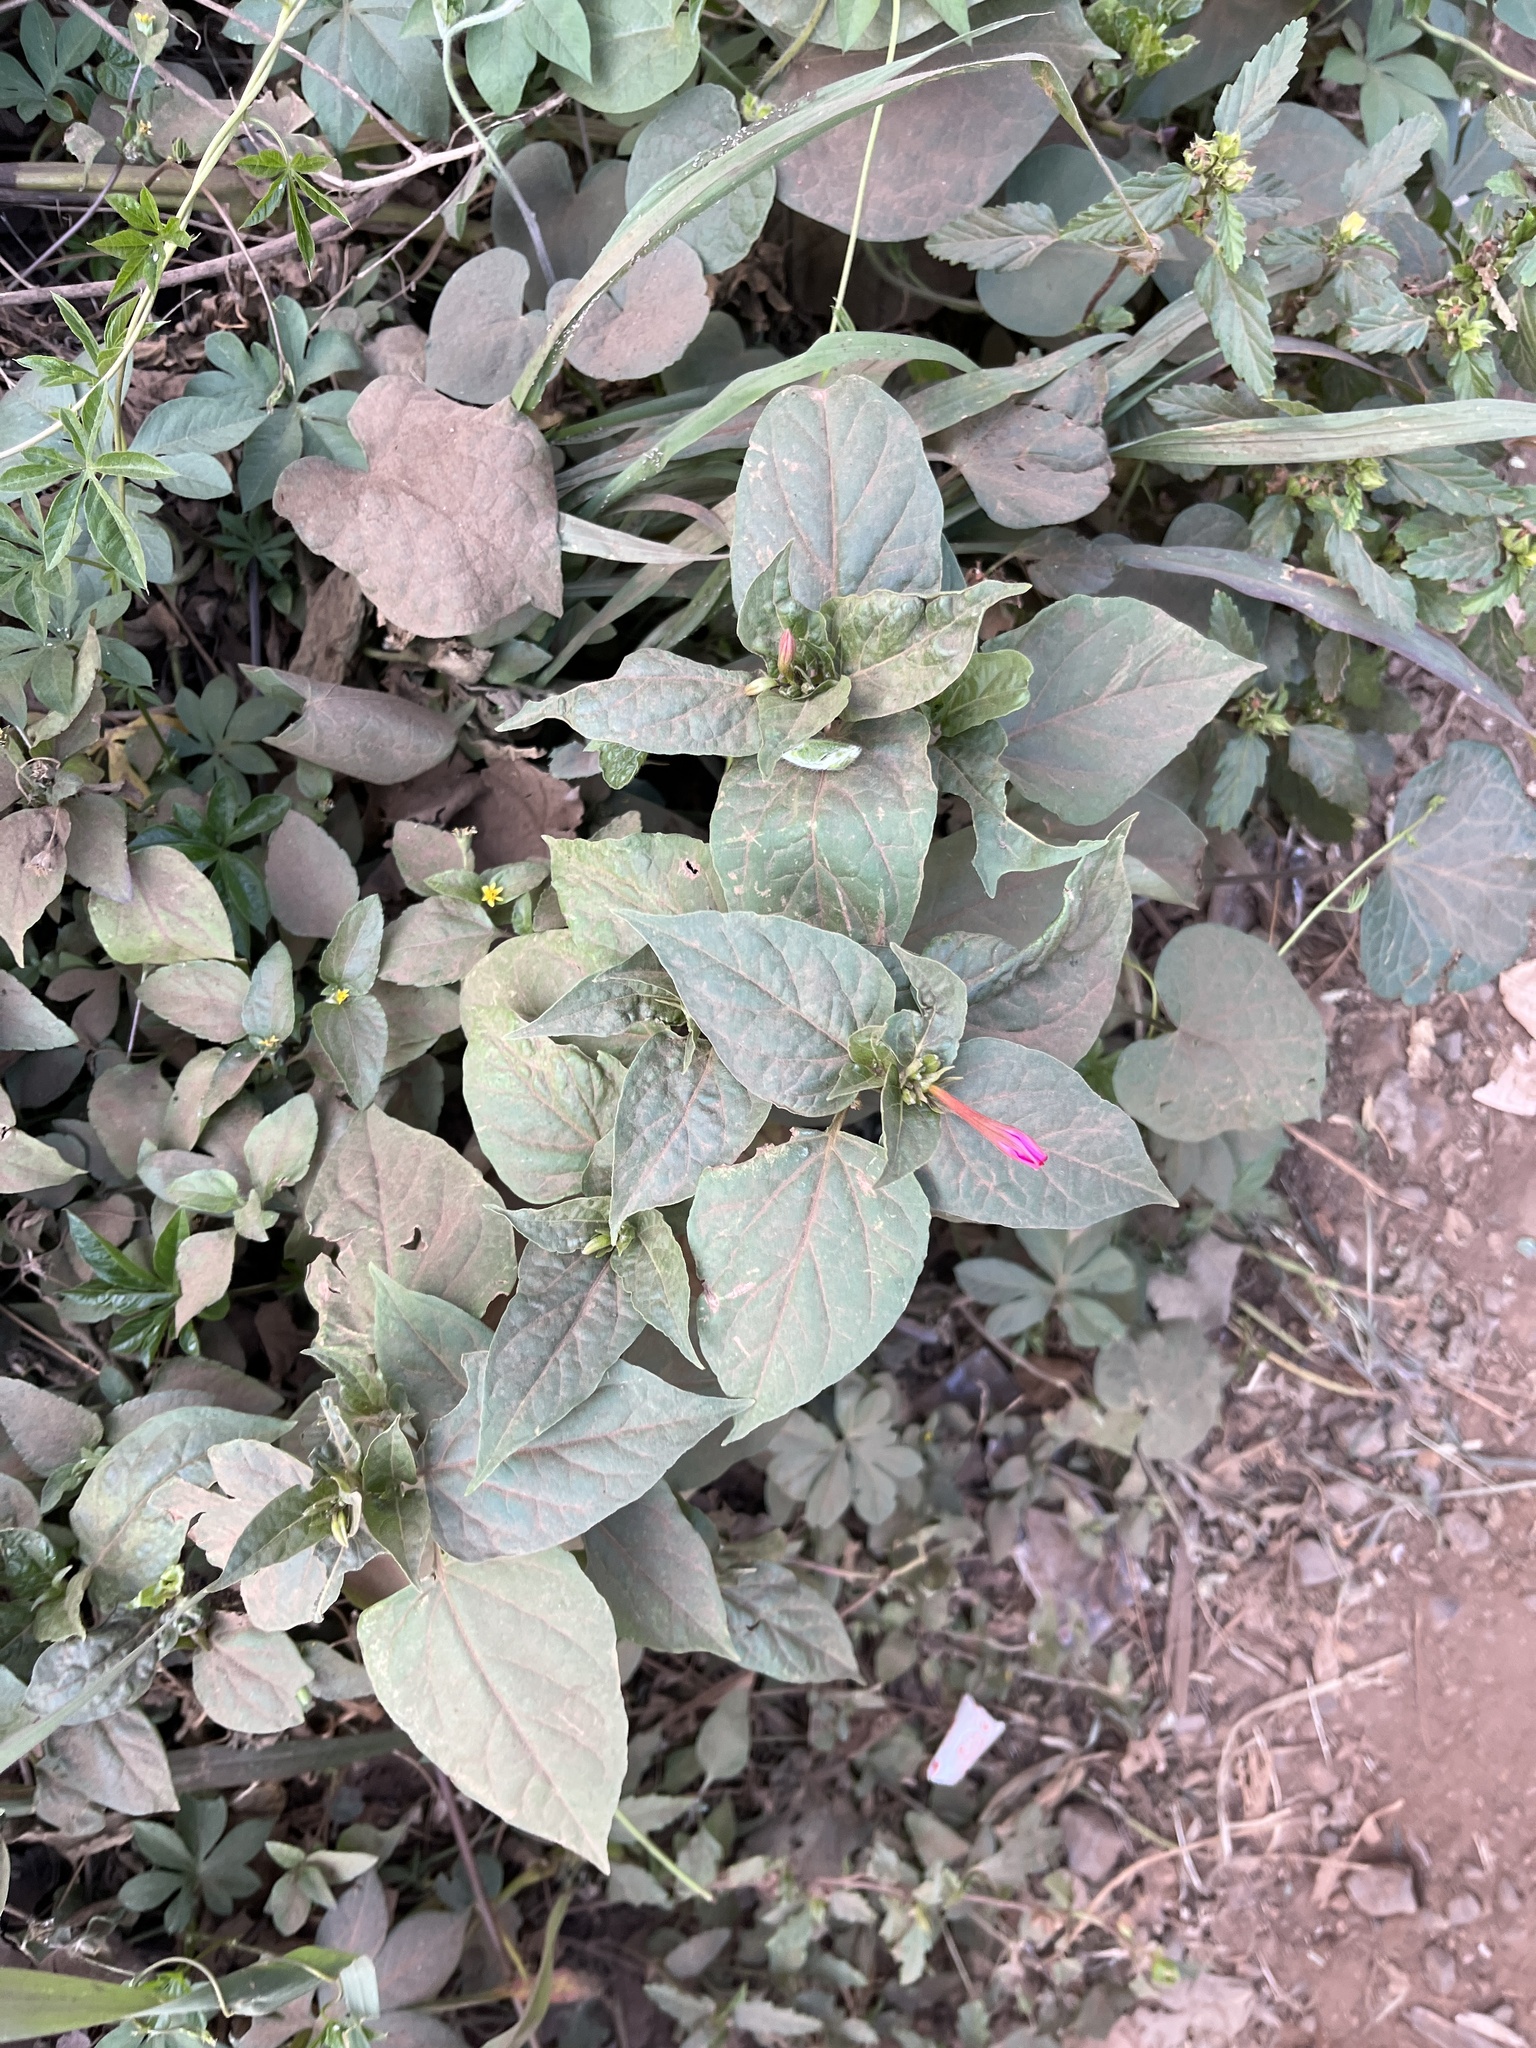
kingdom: Plantae
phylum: Tracheophyta
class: Magnoliopsida
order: Caryophyllales
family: Nyctaginaceae
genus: Mirabilis
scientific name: Mirabilis jalapa
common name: Marvel-of-peru
